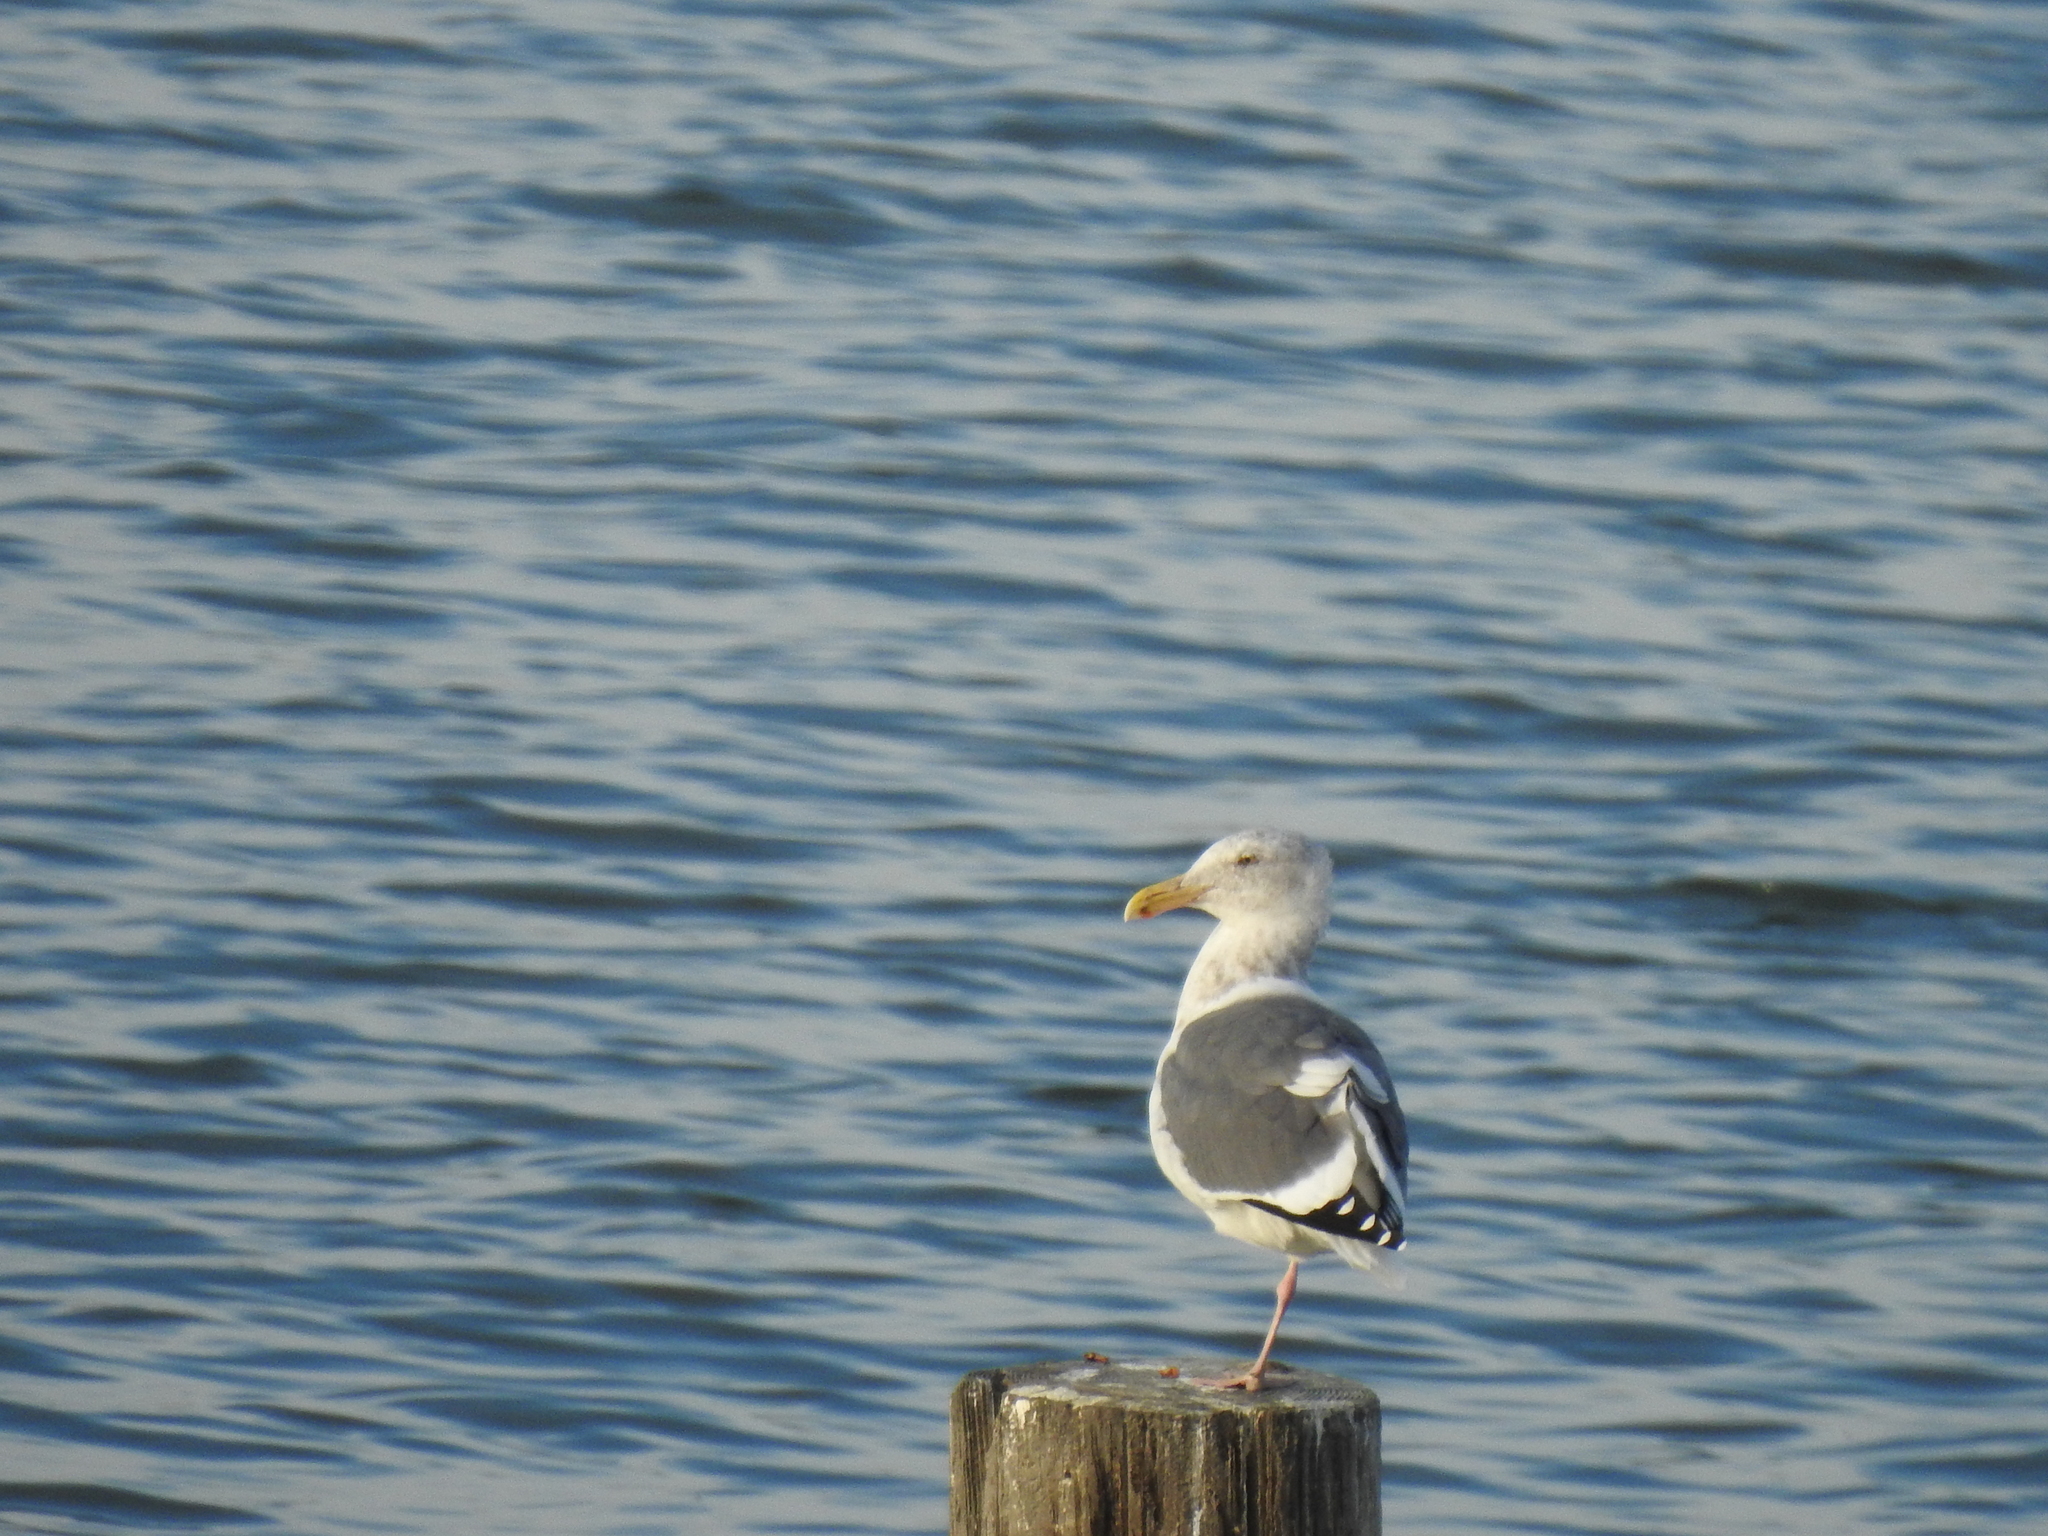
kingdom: Animalia
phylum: Chordata
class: Aves
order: Charadriiformes
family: Laridae
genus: Larus
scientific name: Larus occidentalis
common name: Western gull
